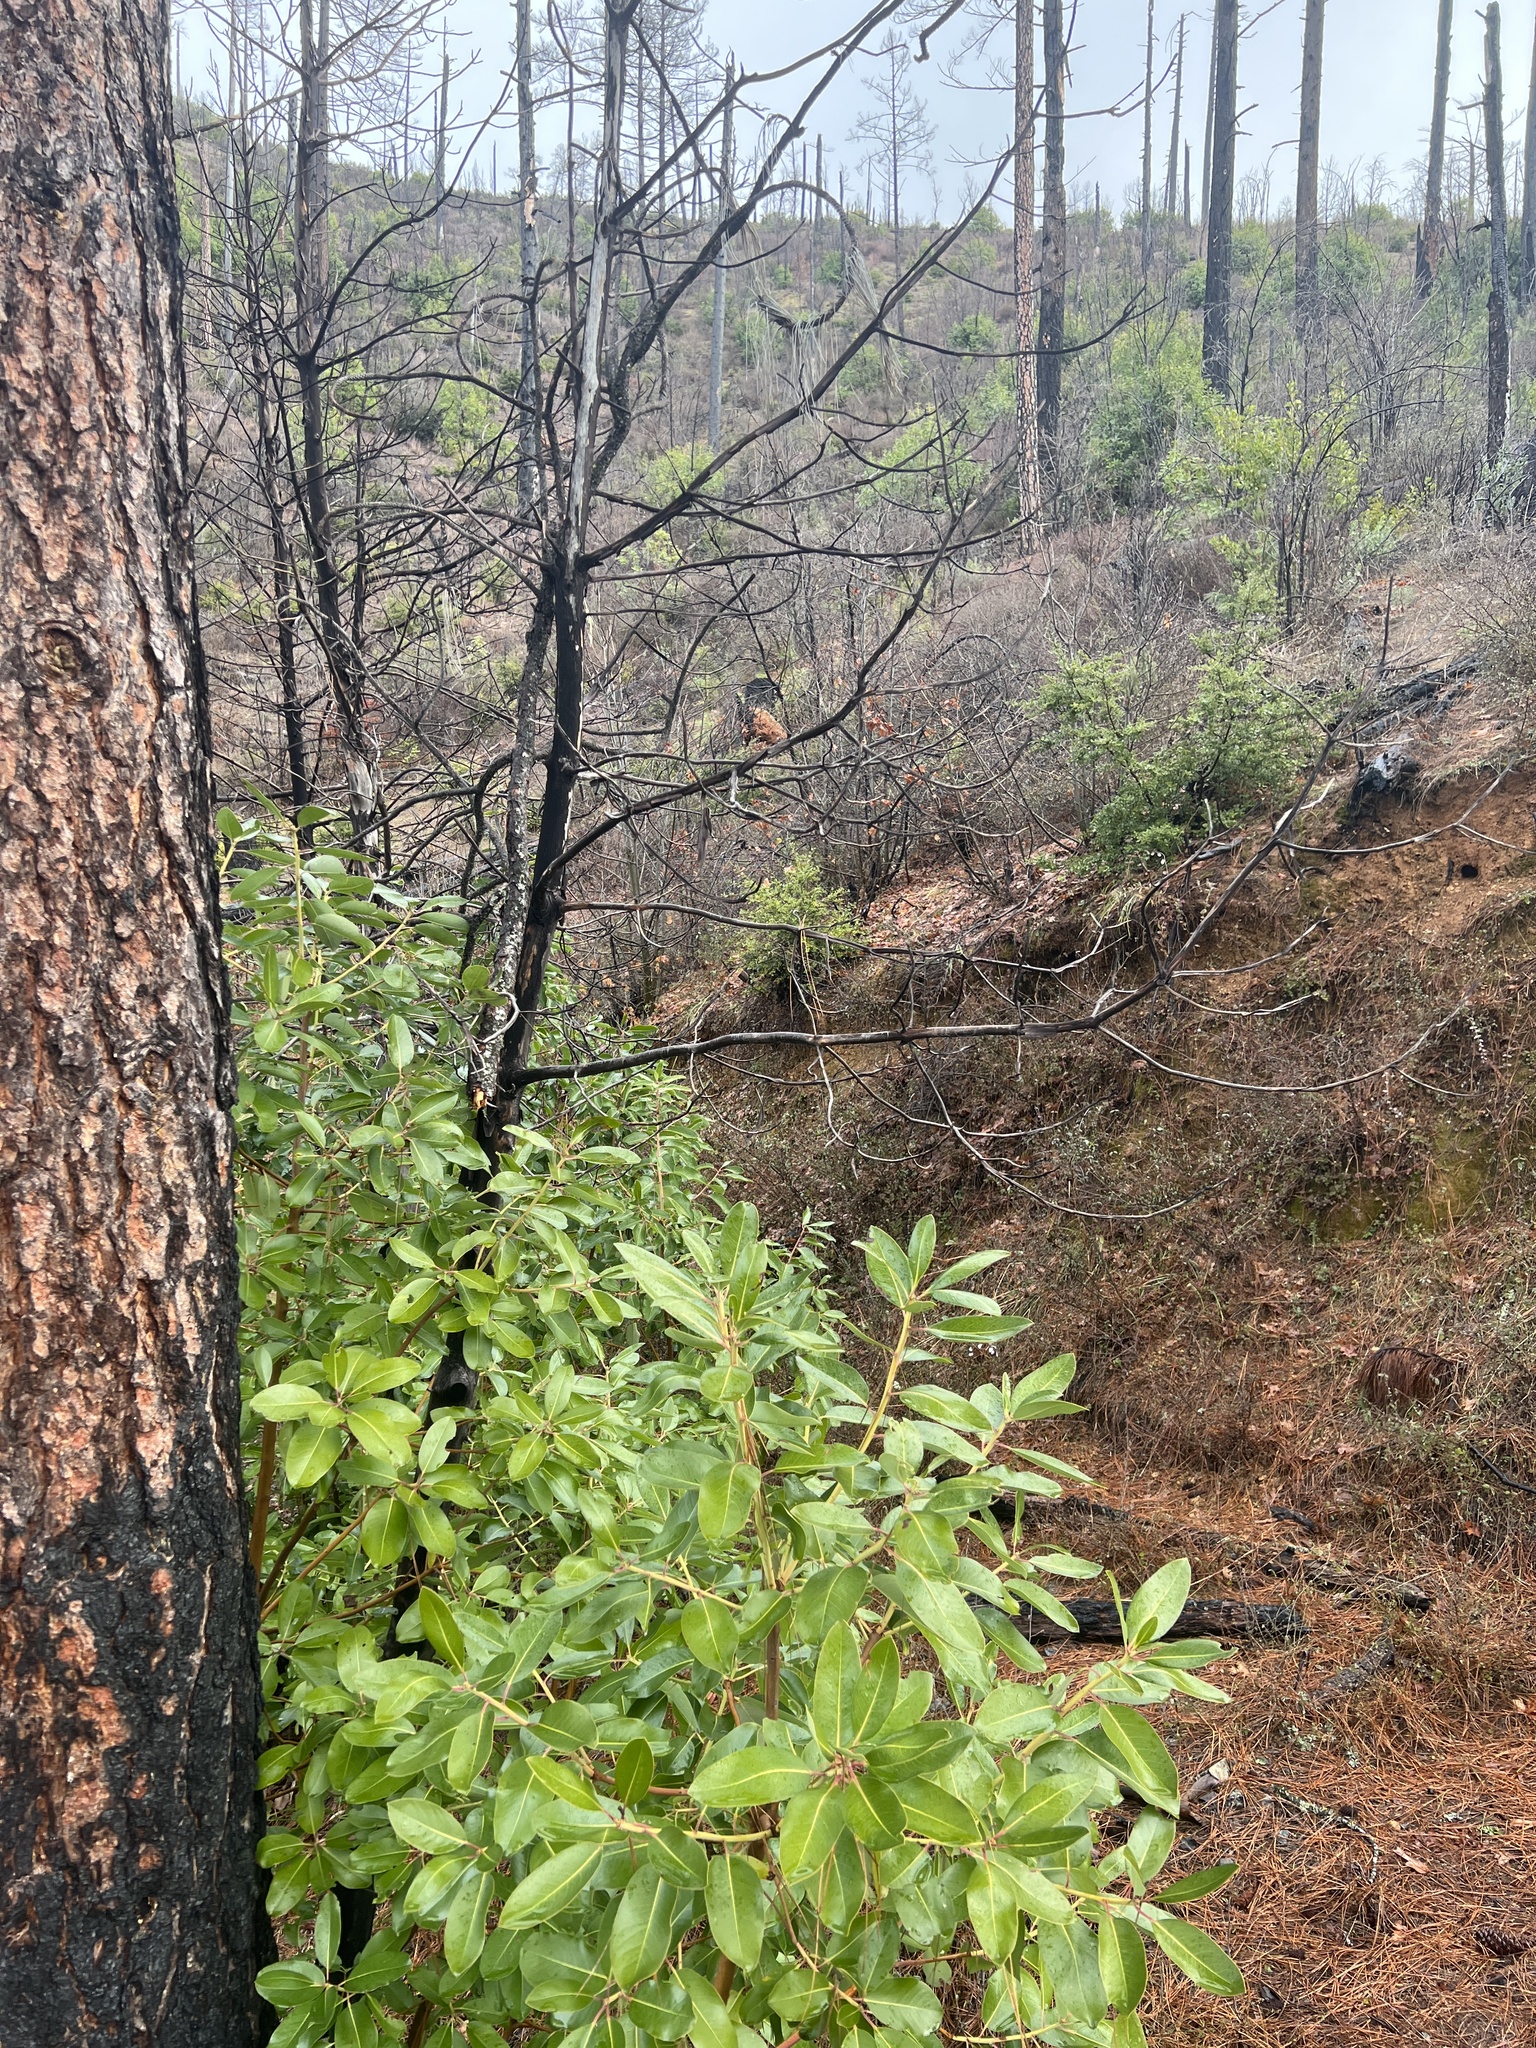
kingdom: Plantae
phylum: Tracheophyta
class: Magnoliopsida
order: Ericales
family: Ericaceae
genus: Arbutus
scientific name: Arbutus menziesii
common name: Pacific madrone
